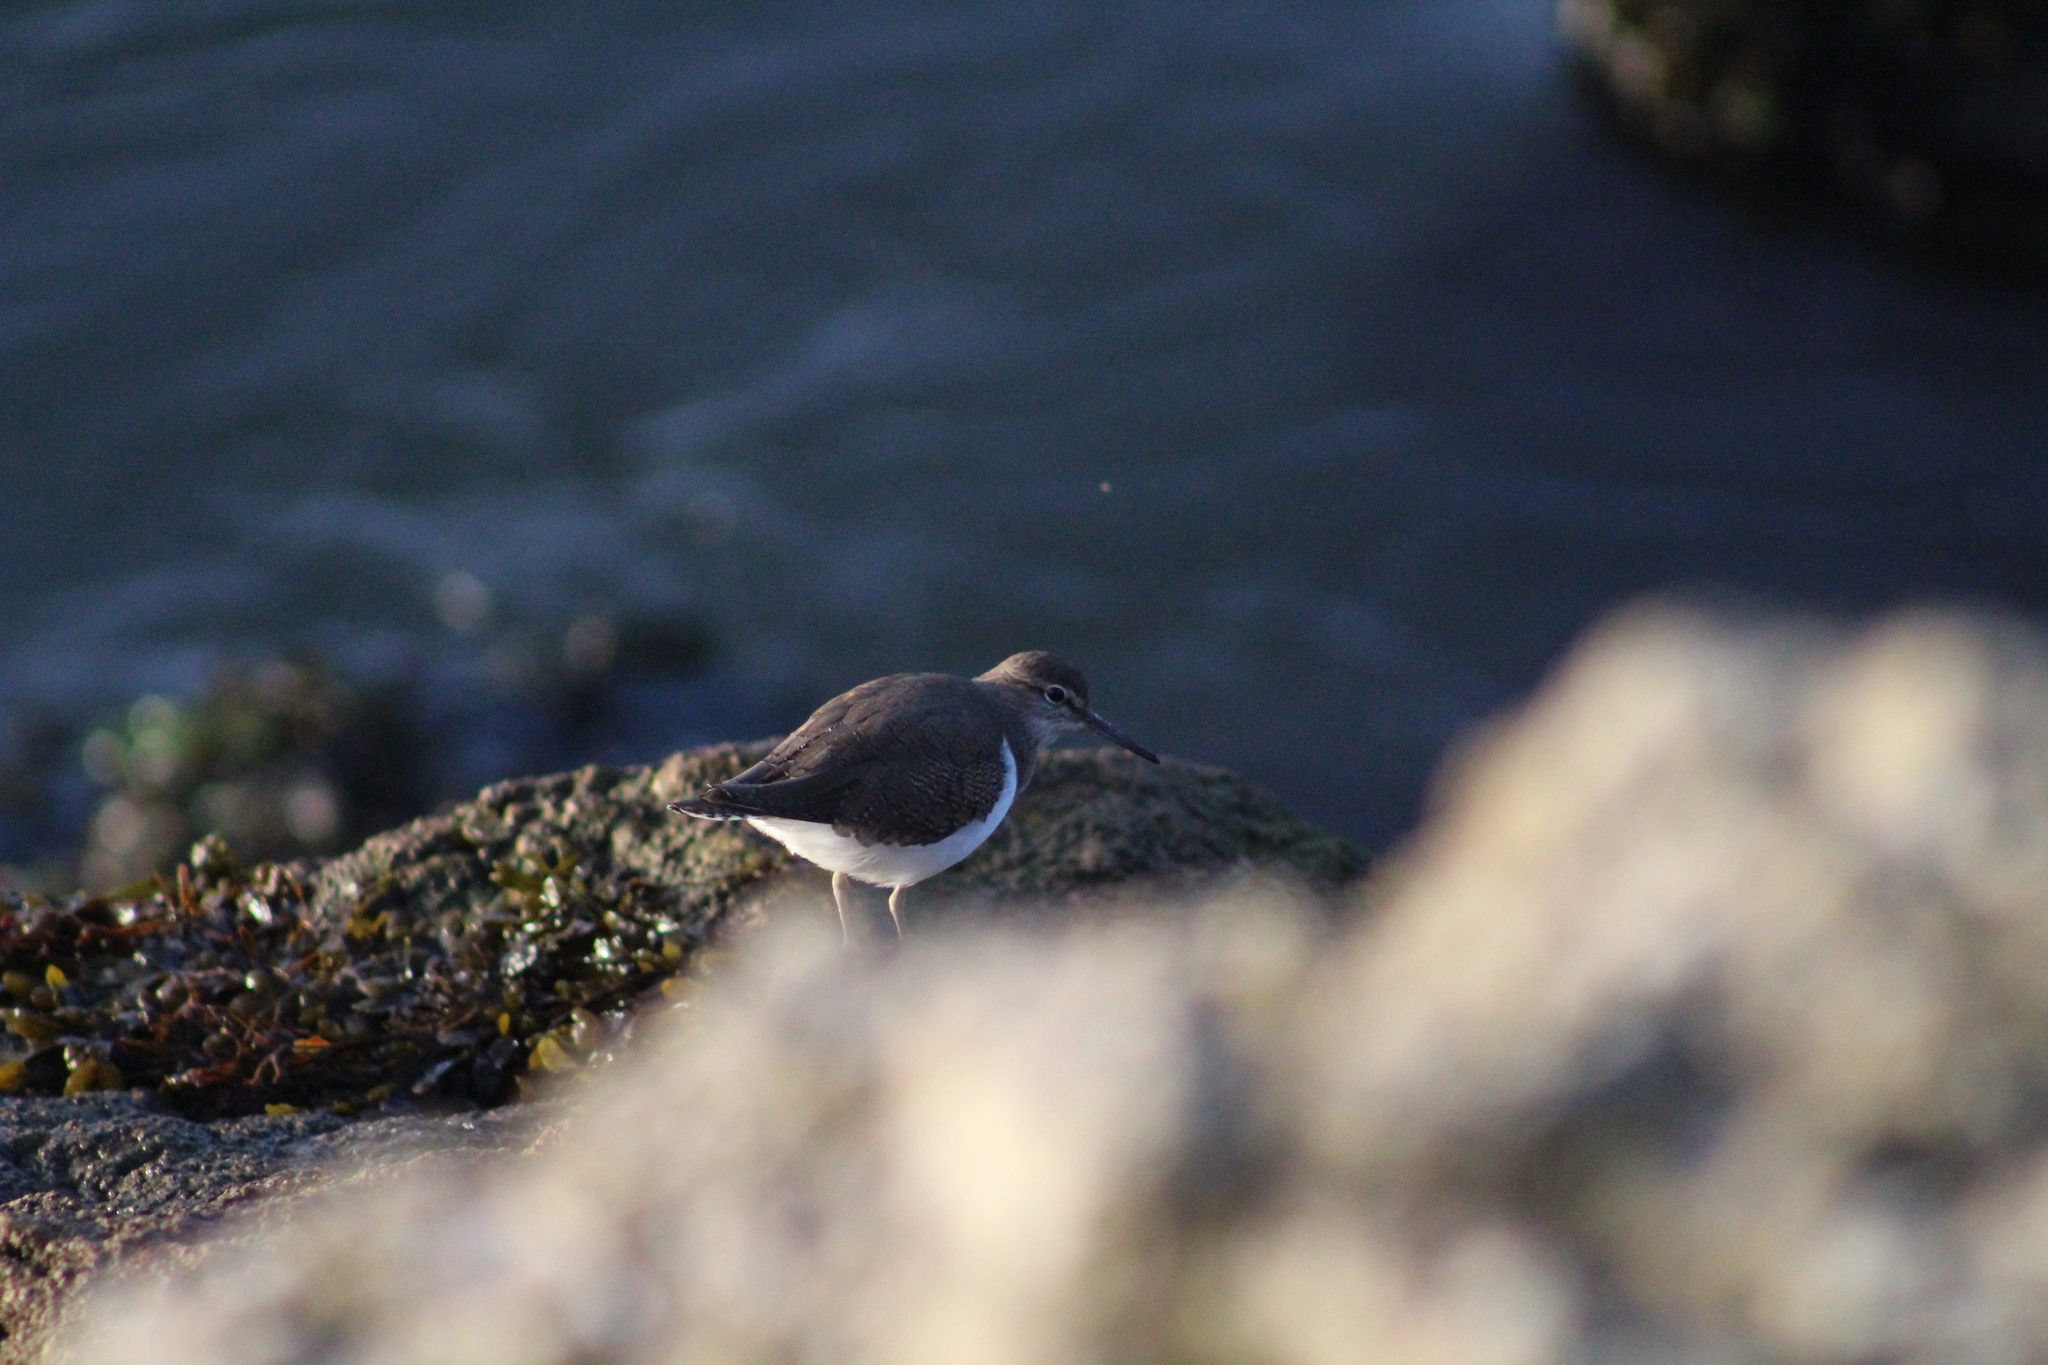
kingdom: Animalia
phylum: Chordata
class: Aves
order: Charadriiformes
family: Scolopacidae
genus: Actitis
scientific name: Actitis hypoleucos
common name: Common sandpiper
